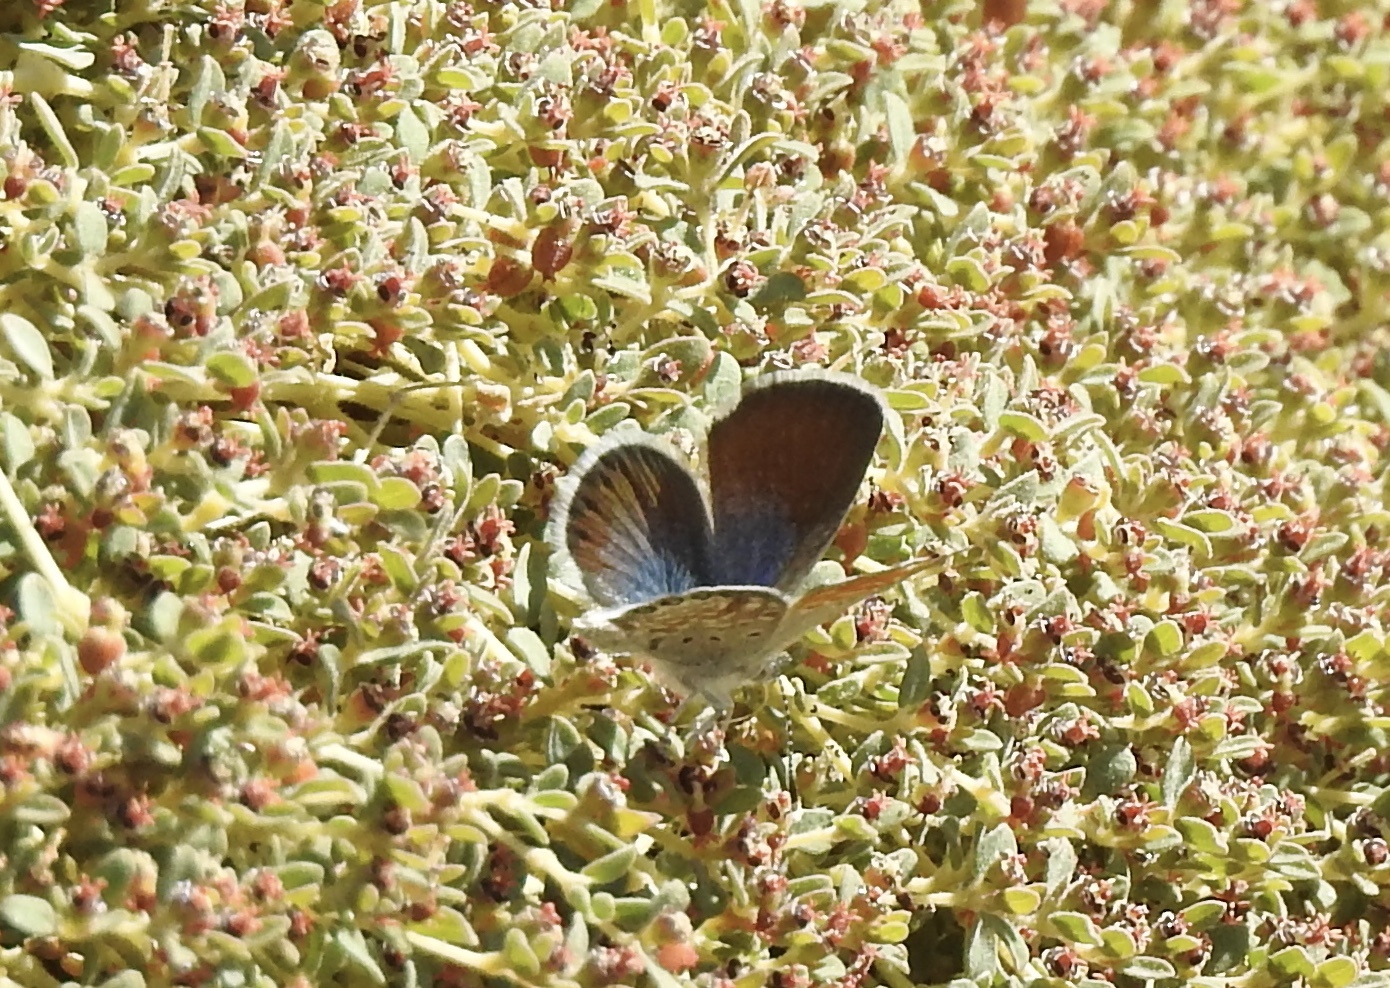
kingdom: Animalia
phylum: Arthropoda
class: Insecta
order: Lepidoptera
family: Lycaenidae
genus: Brephidium
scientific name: Brephidium exilis
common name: Pygmy blue
